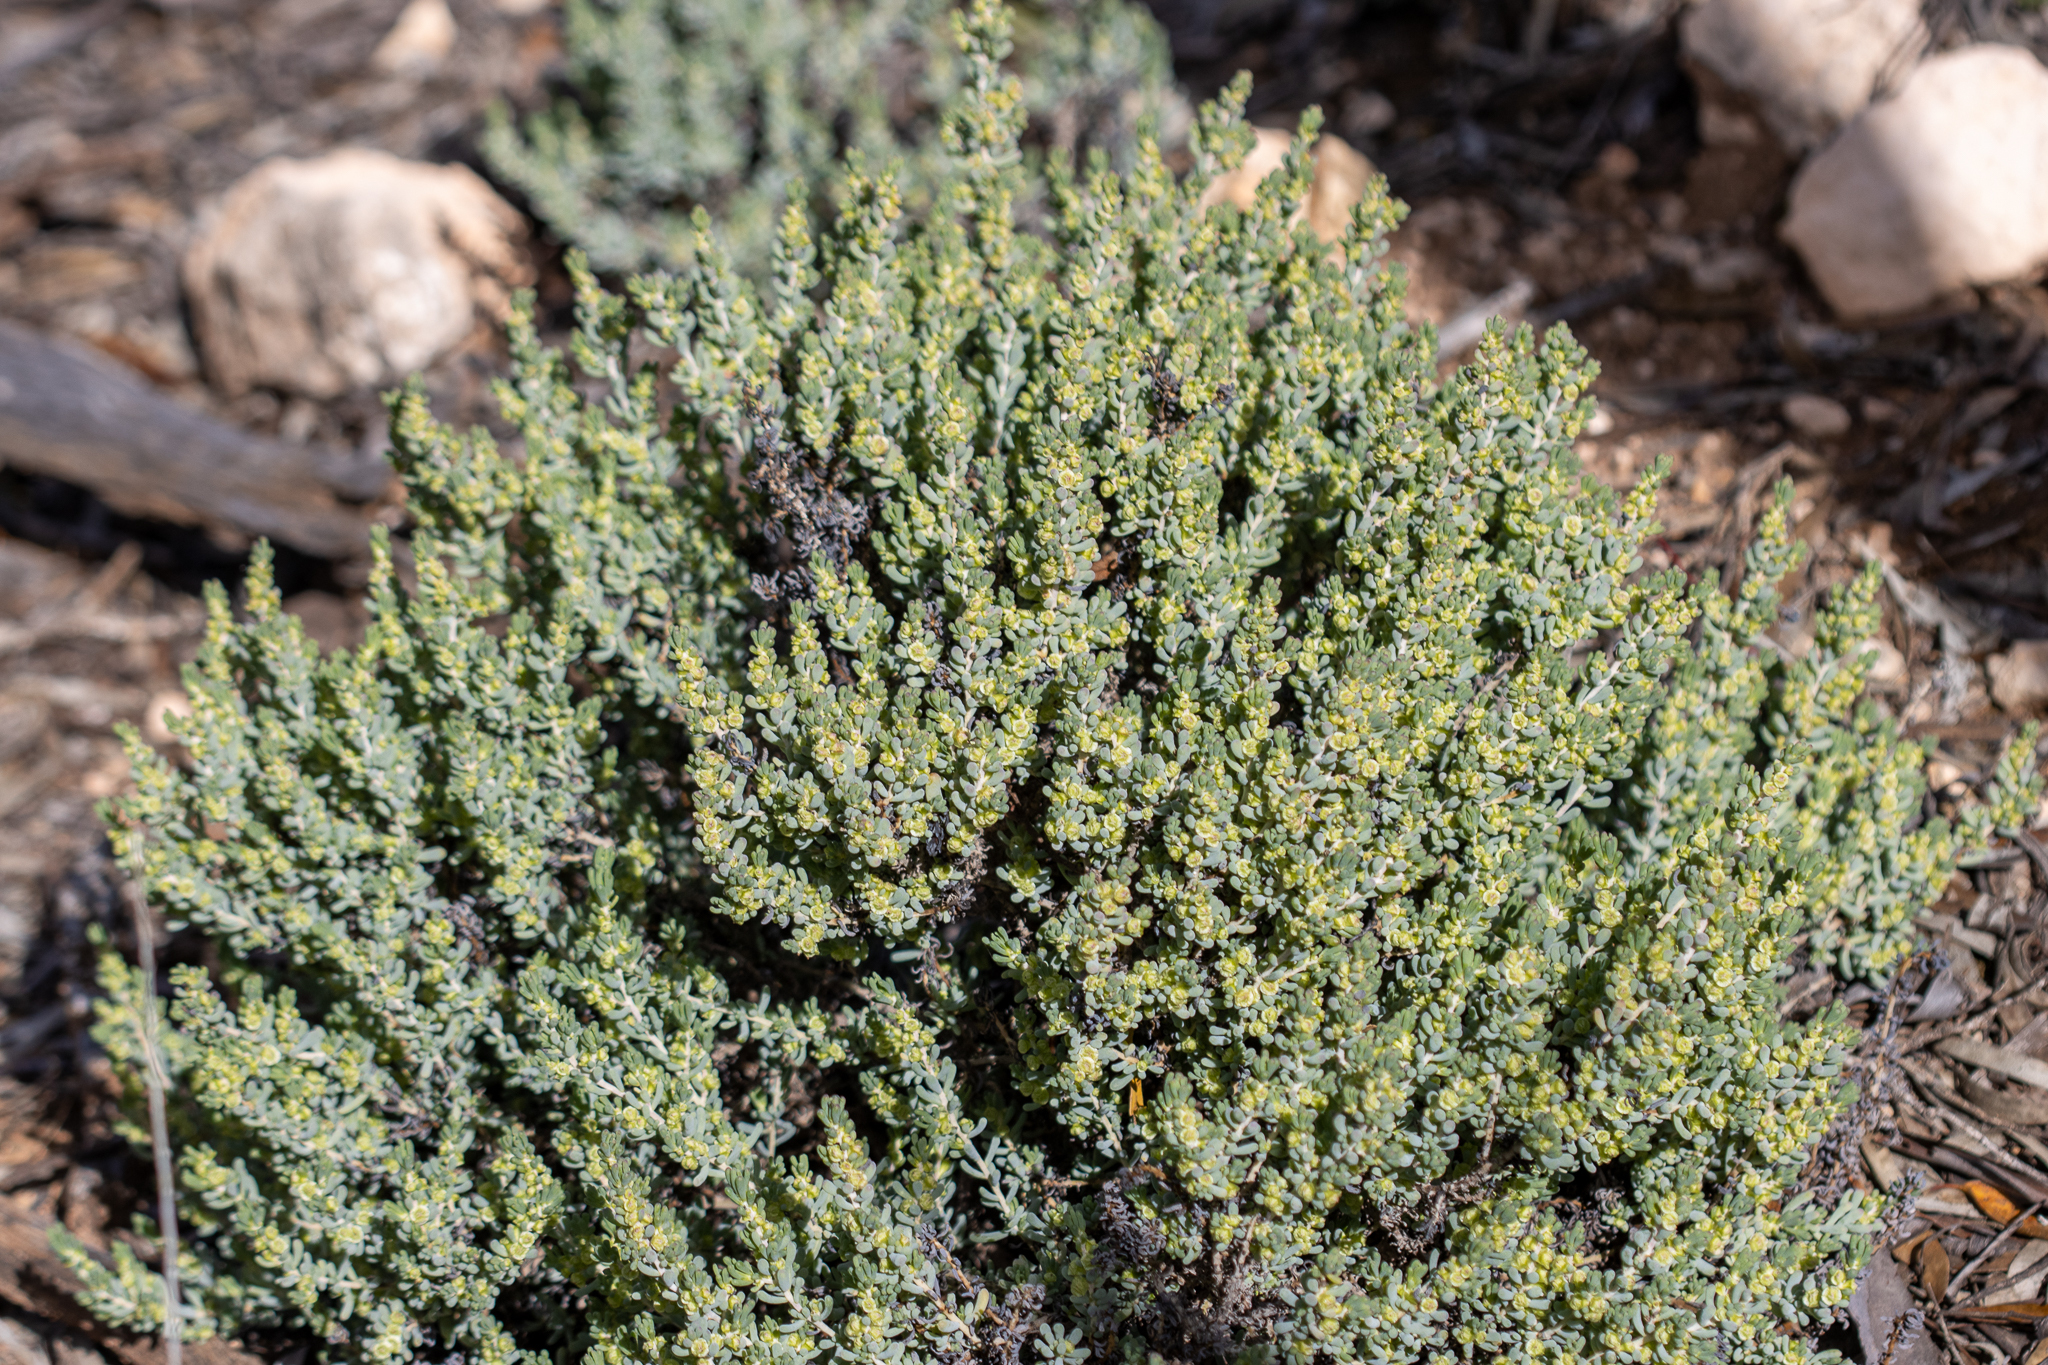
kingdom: Plantae
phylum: Tracheophyta
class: Magnoliopsida
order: Caryophyllales
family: Amaranthaceae
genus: Maireana
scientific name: Maireana erioclada
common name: Rosy bluebush
